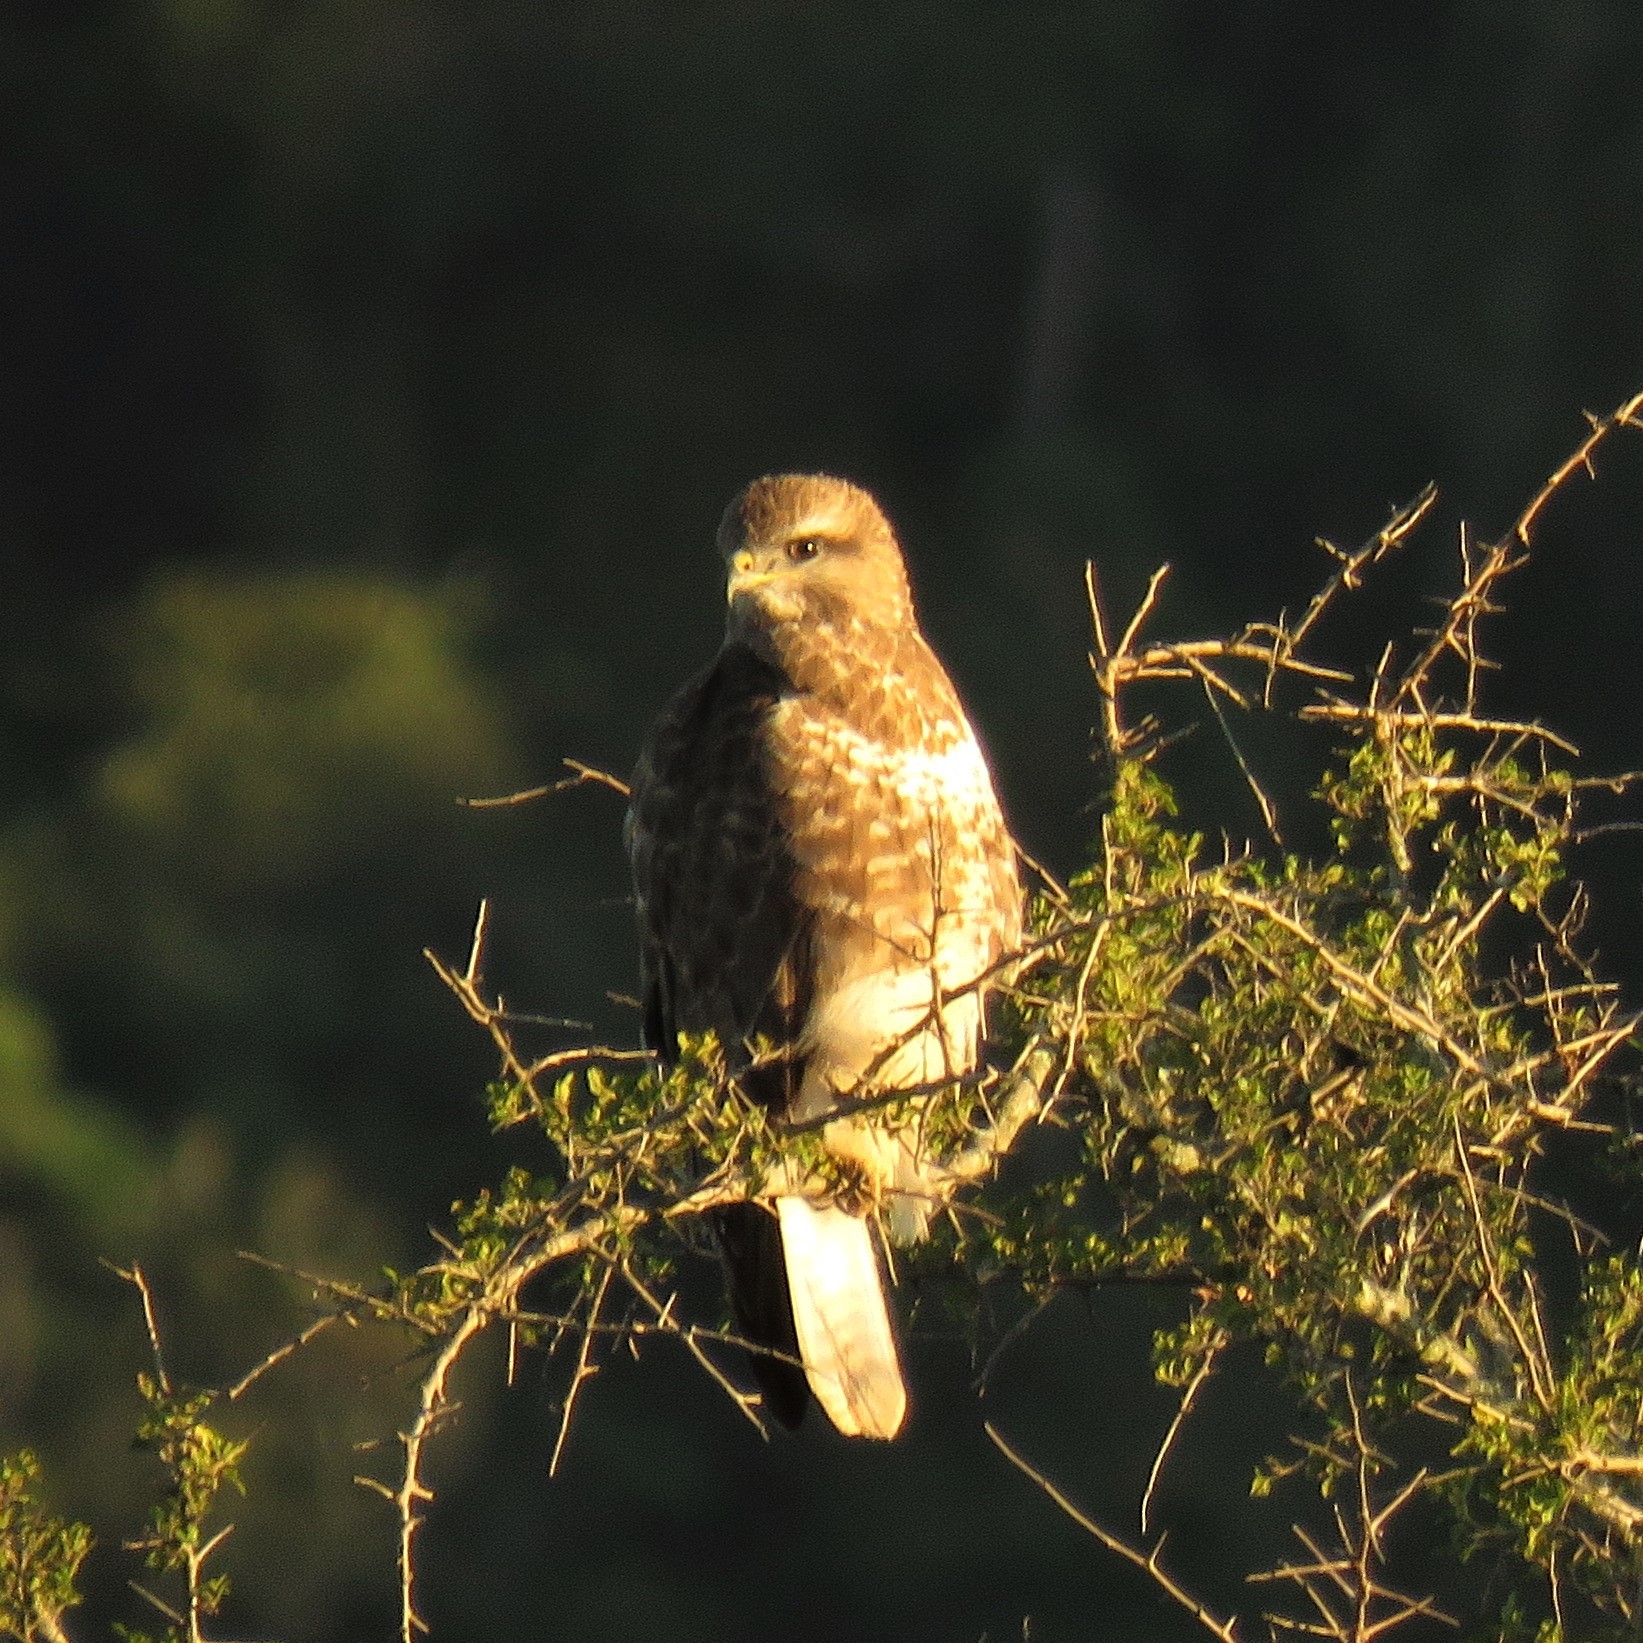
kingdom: Animalia
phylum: Chordata
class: Aves
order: Accipitriformes
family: Accipitridae
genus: Buteo
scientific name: Buteo buteo
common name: Common buzzard
